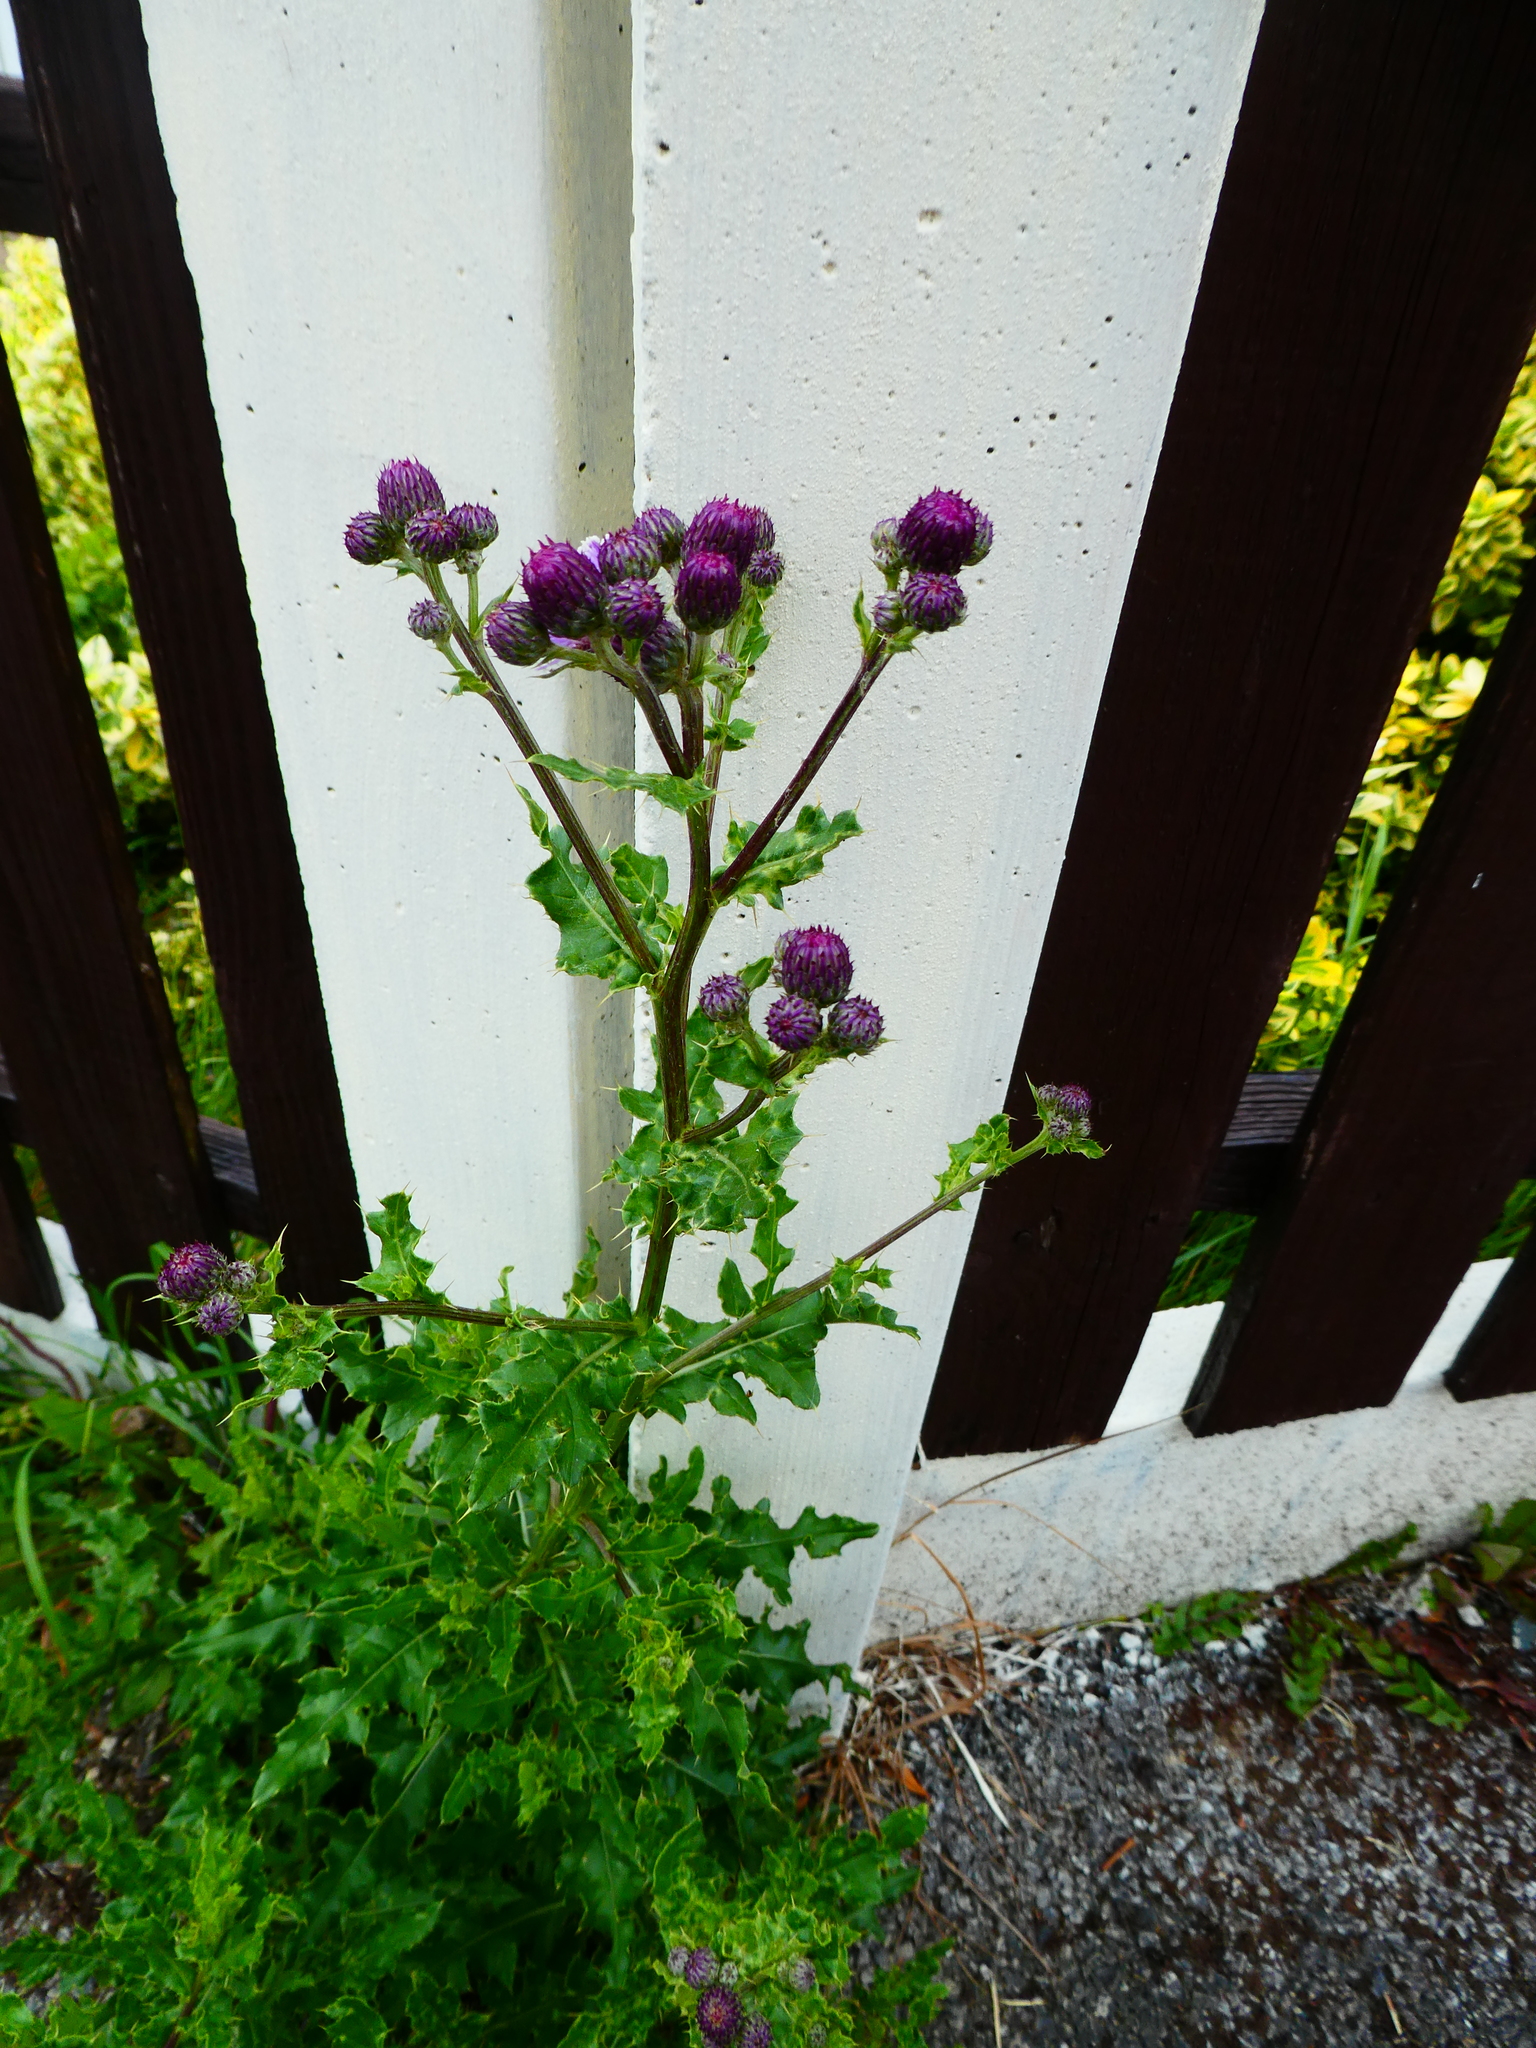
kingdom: Plantae
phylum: Tracheophyta
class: Magnoliopsida
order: Asterales
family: Asteraceae
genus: Cirsium
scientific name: Cirsium arvense
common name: Creeping thistle
